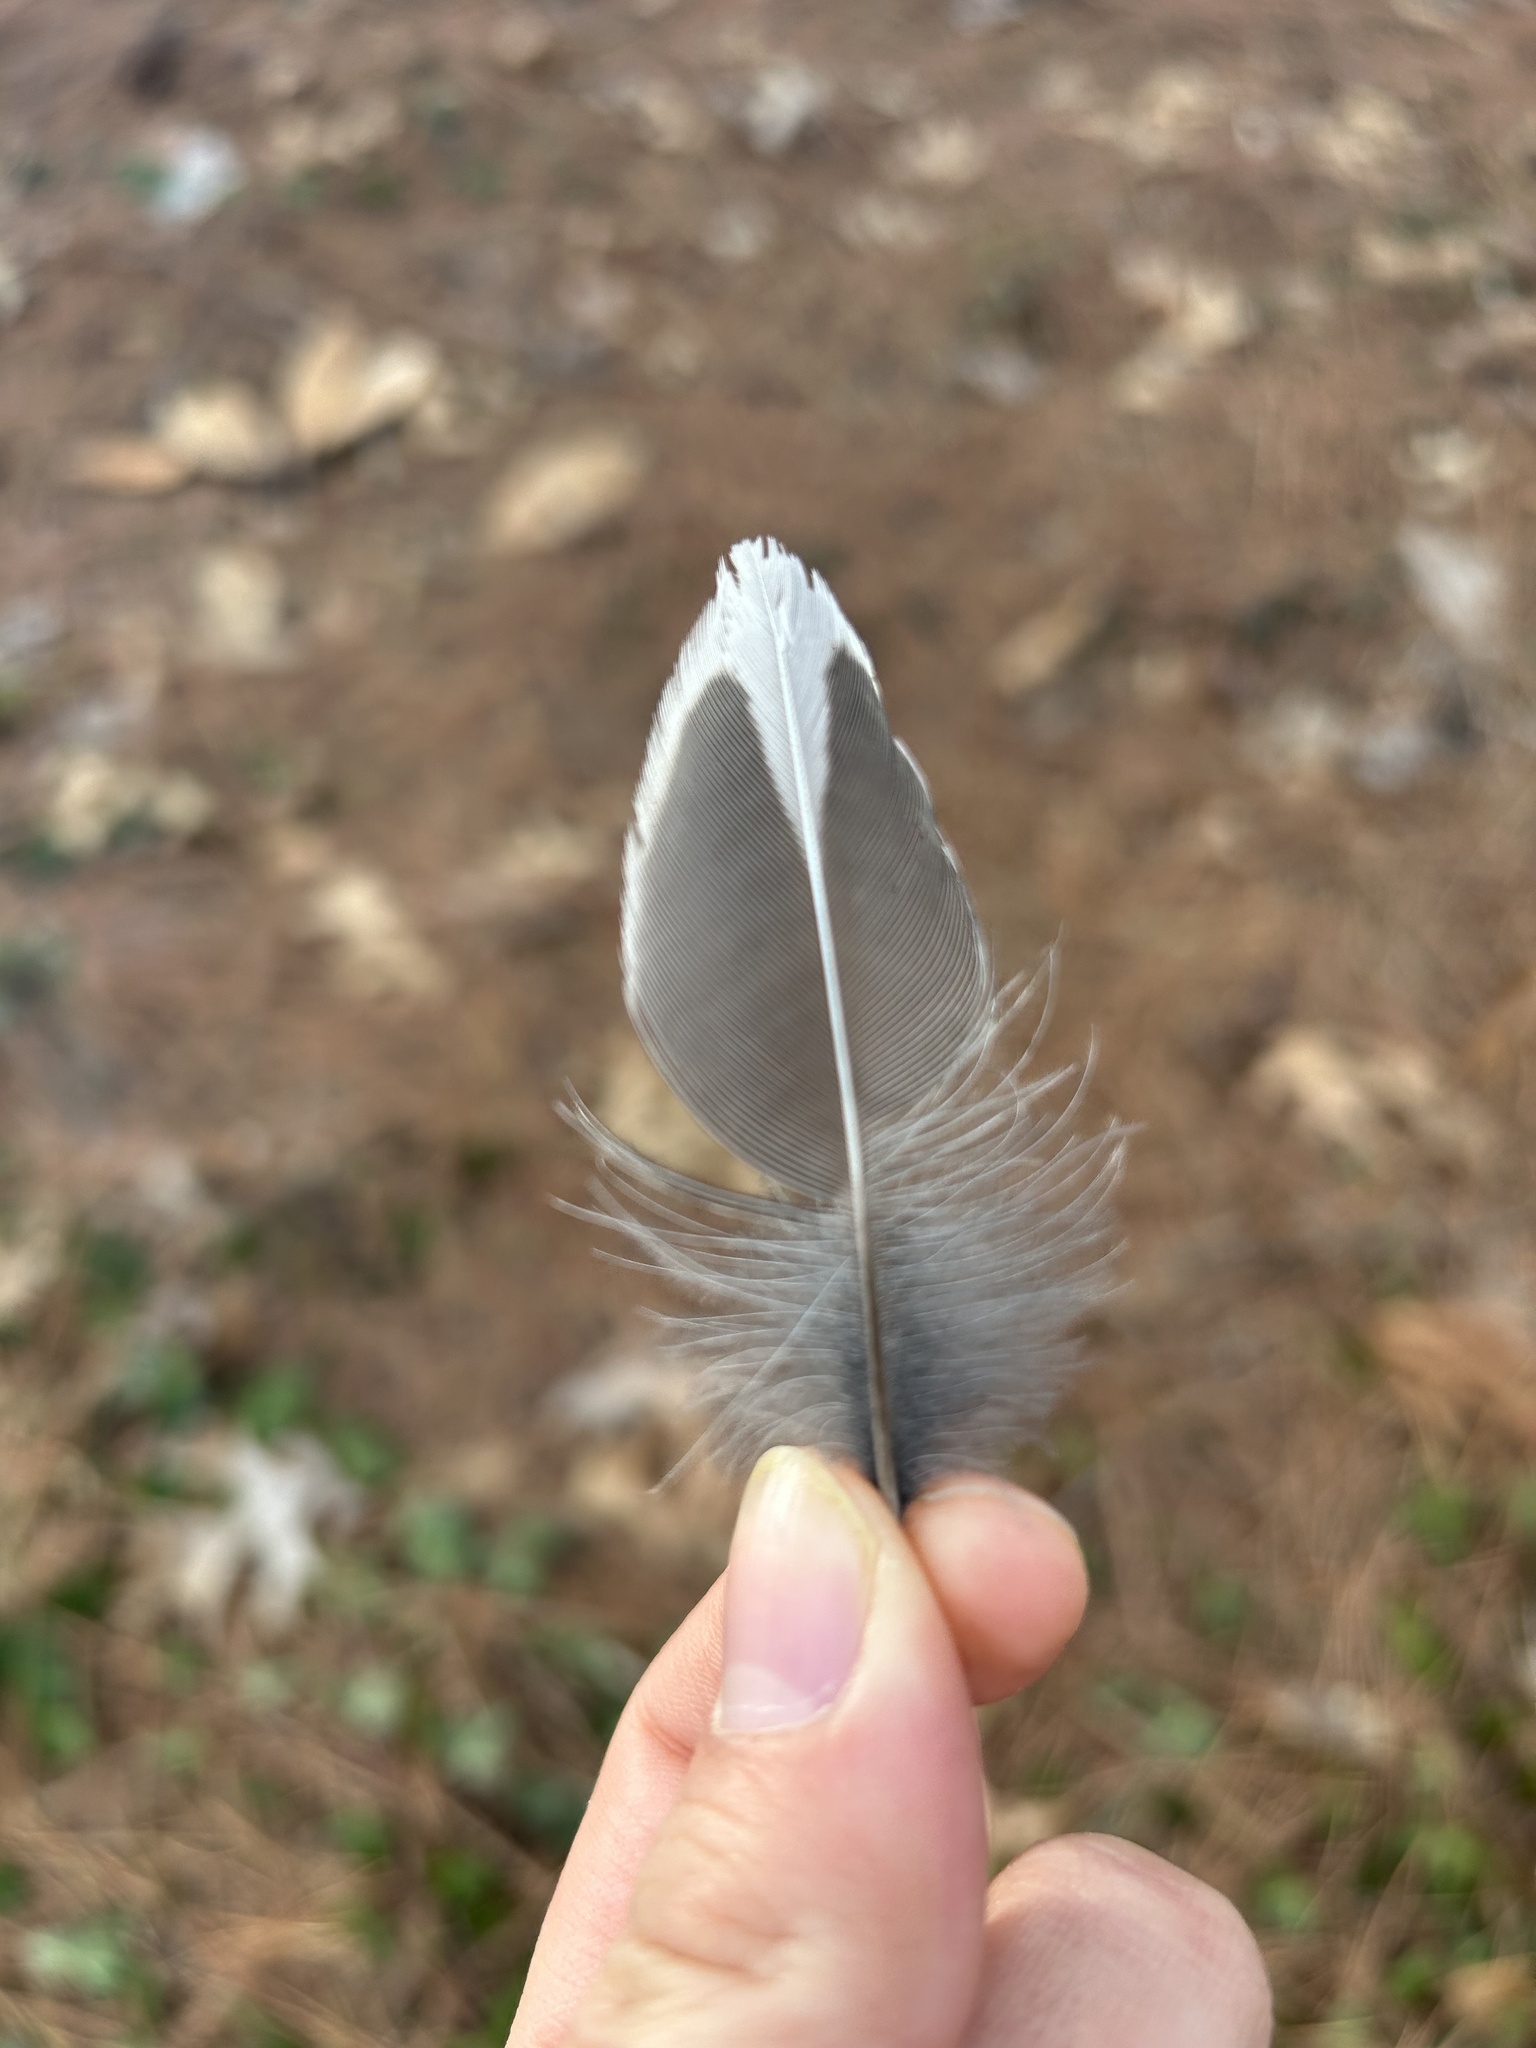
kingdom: Animalia
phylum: Chordata
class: Aves
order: Passeriformes
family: Turdidae
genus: Turdus
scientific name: Turdus migratorius
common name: American robin
